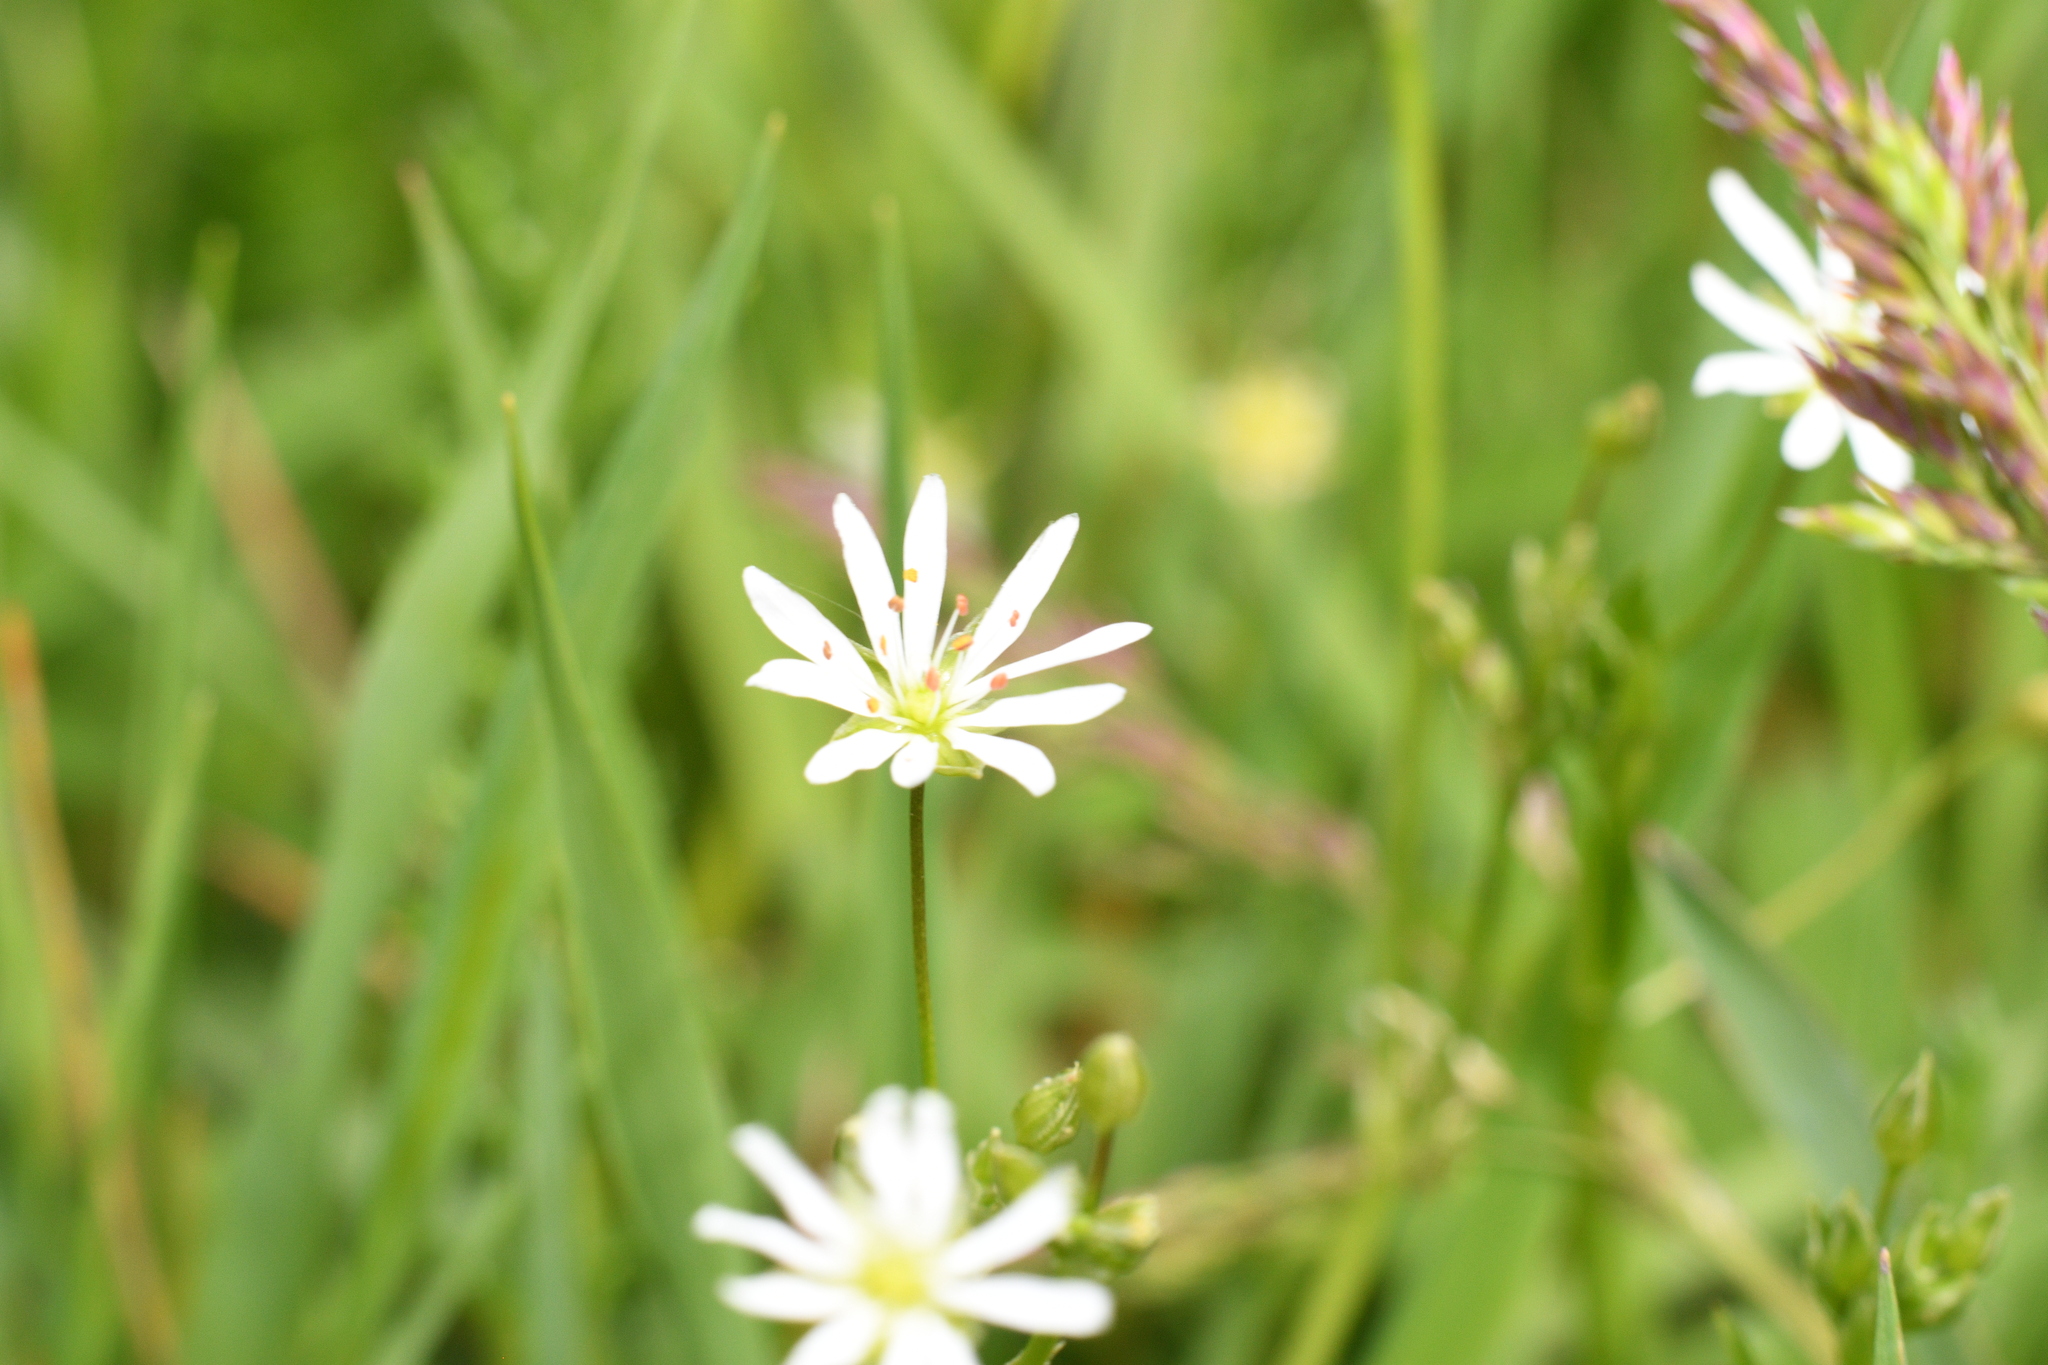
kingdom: Plantae
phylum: Tracheophyta
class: Magnoliopsida
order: Caryophyllales
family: Caryophyllaceae
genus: Stellaria
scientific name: Stellaria graminea
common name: Grass-like starwort
